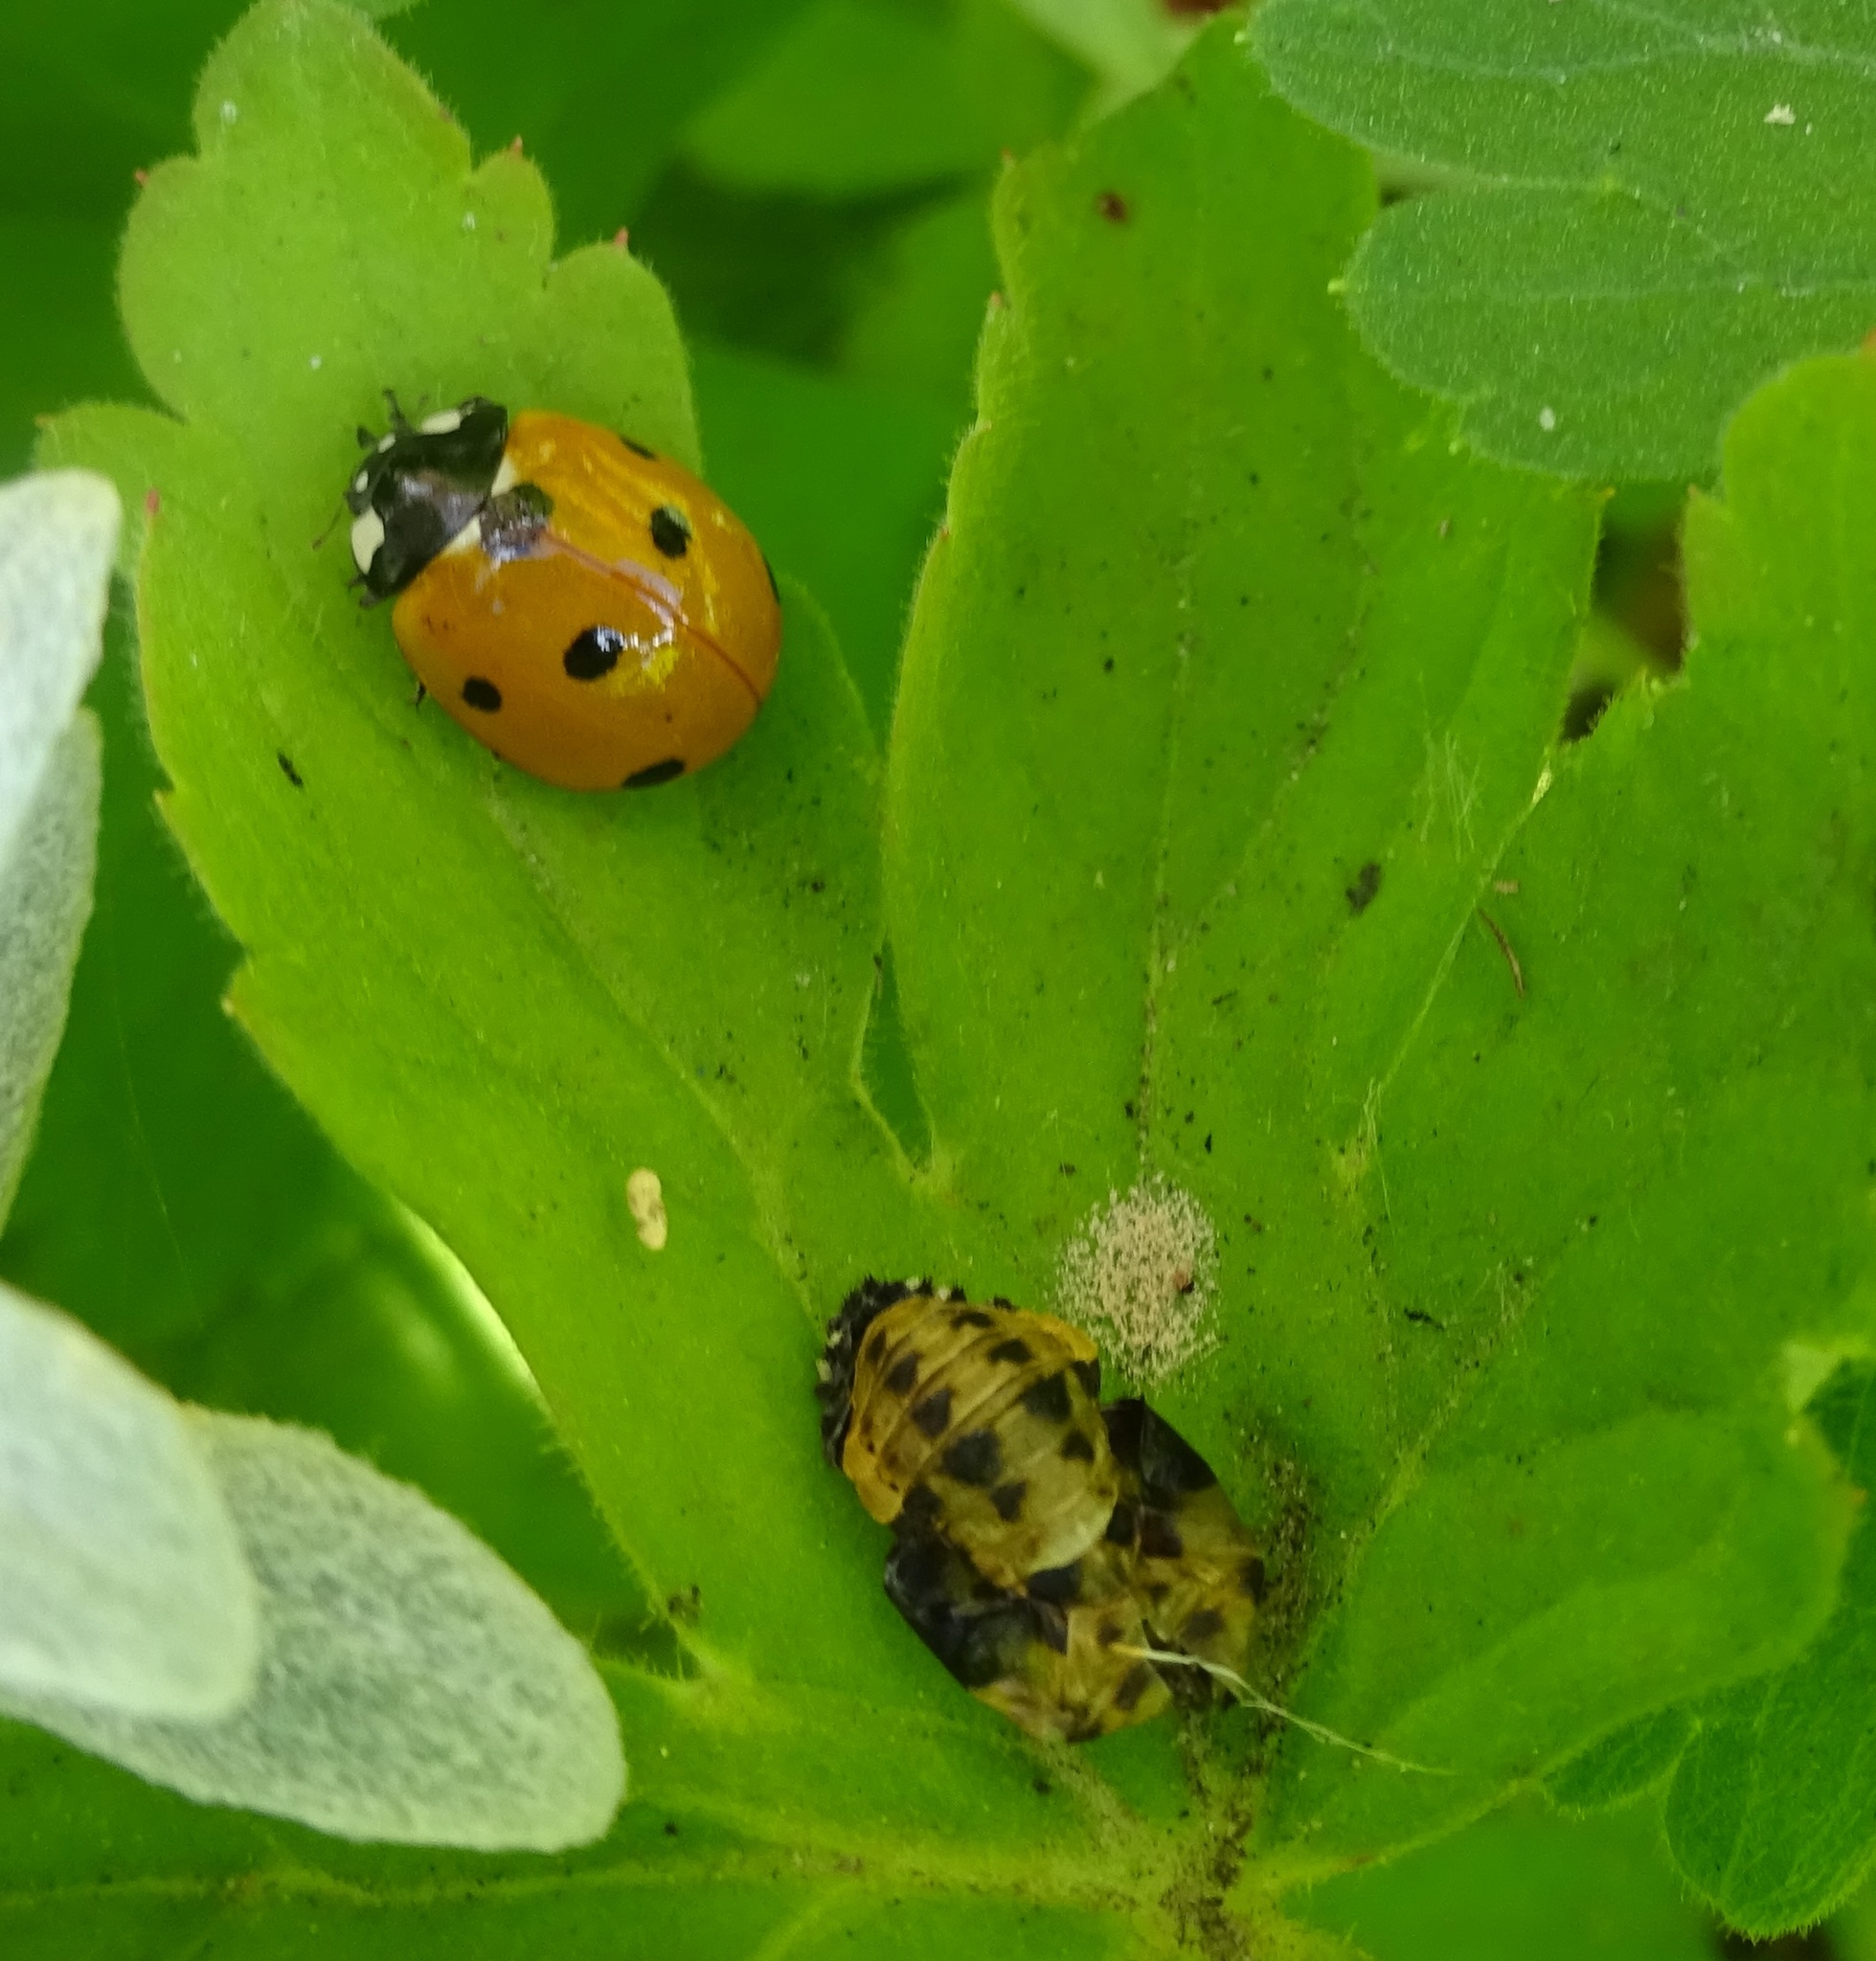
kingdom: Animalia
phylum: Arthropoda
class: Insecta
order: Coleoptera
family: Coccinellidae
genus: Coccinella
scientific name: Coccinella septempunctata
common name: Sevenspotted lady beetle
